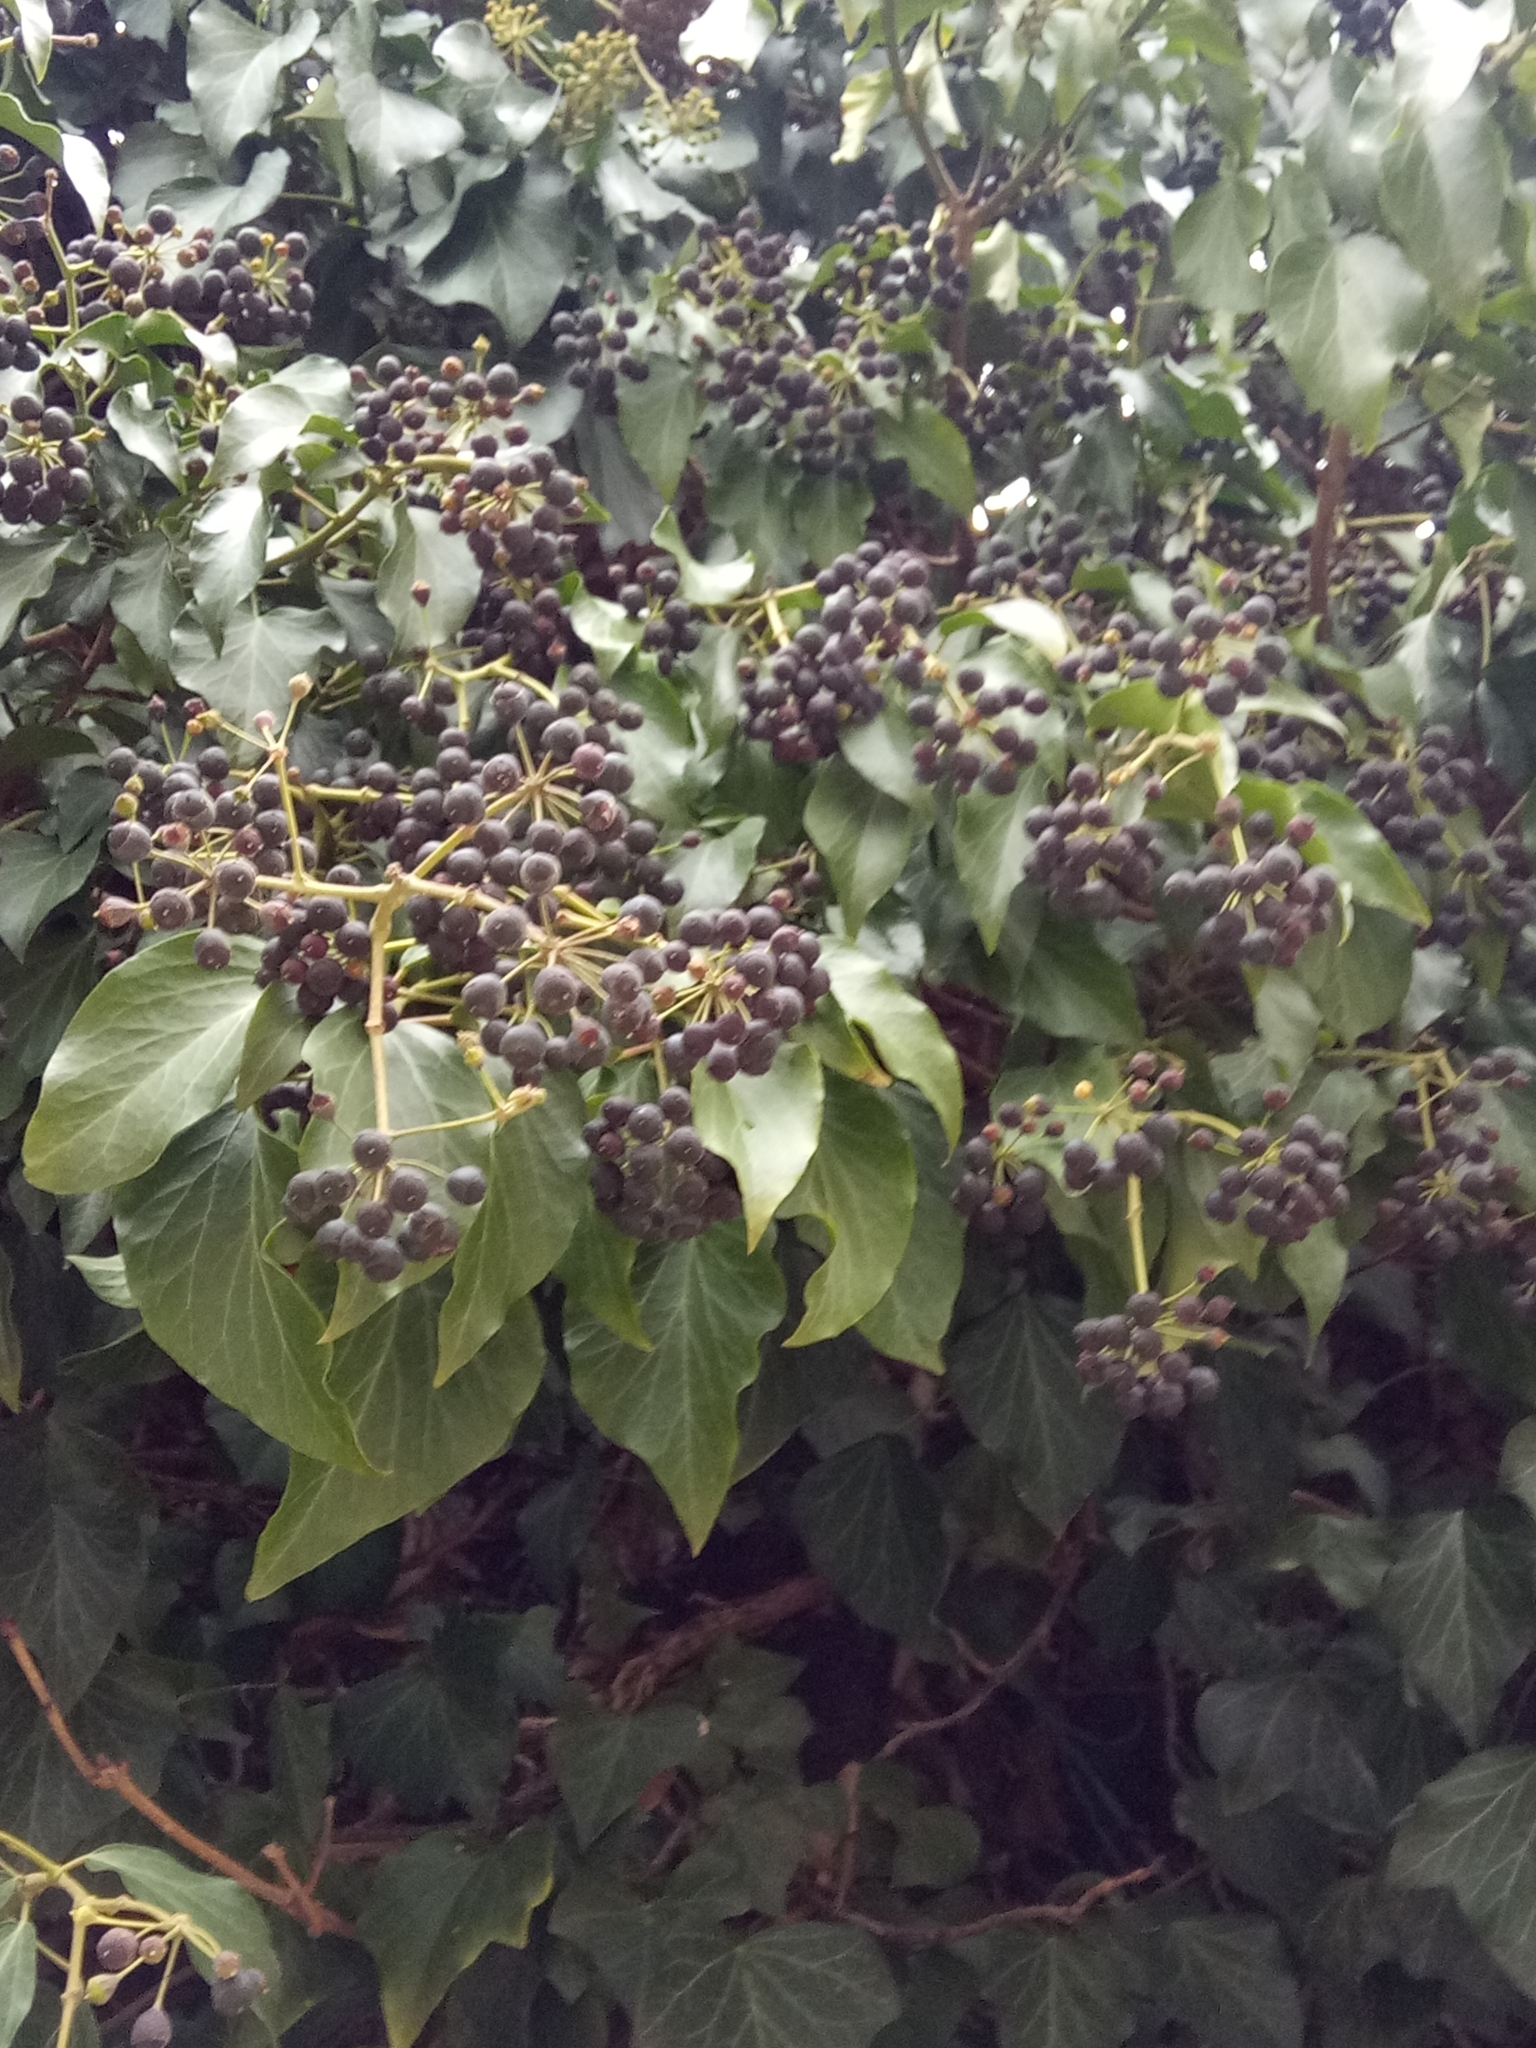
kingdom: Plantae
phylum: Tracheophyta
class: Magnoliopsida
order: Apiales
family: Araliaceae
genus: Hedera
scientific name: Hedera helix
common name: Ivy
